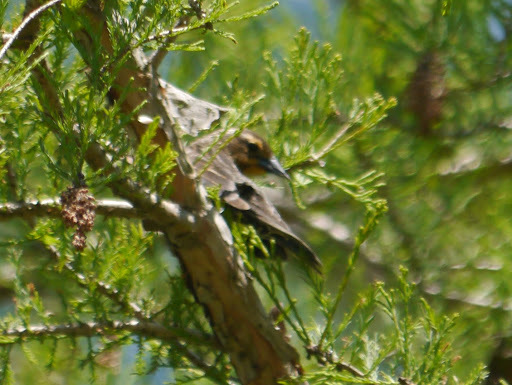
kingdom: Animalia
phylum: Chordata
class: Aves
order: Passeriformes
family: Icteridae
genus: Agelaius
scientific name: Agelaius phoeniceus
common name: Red-winged blackbird
